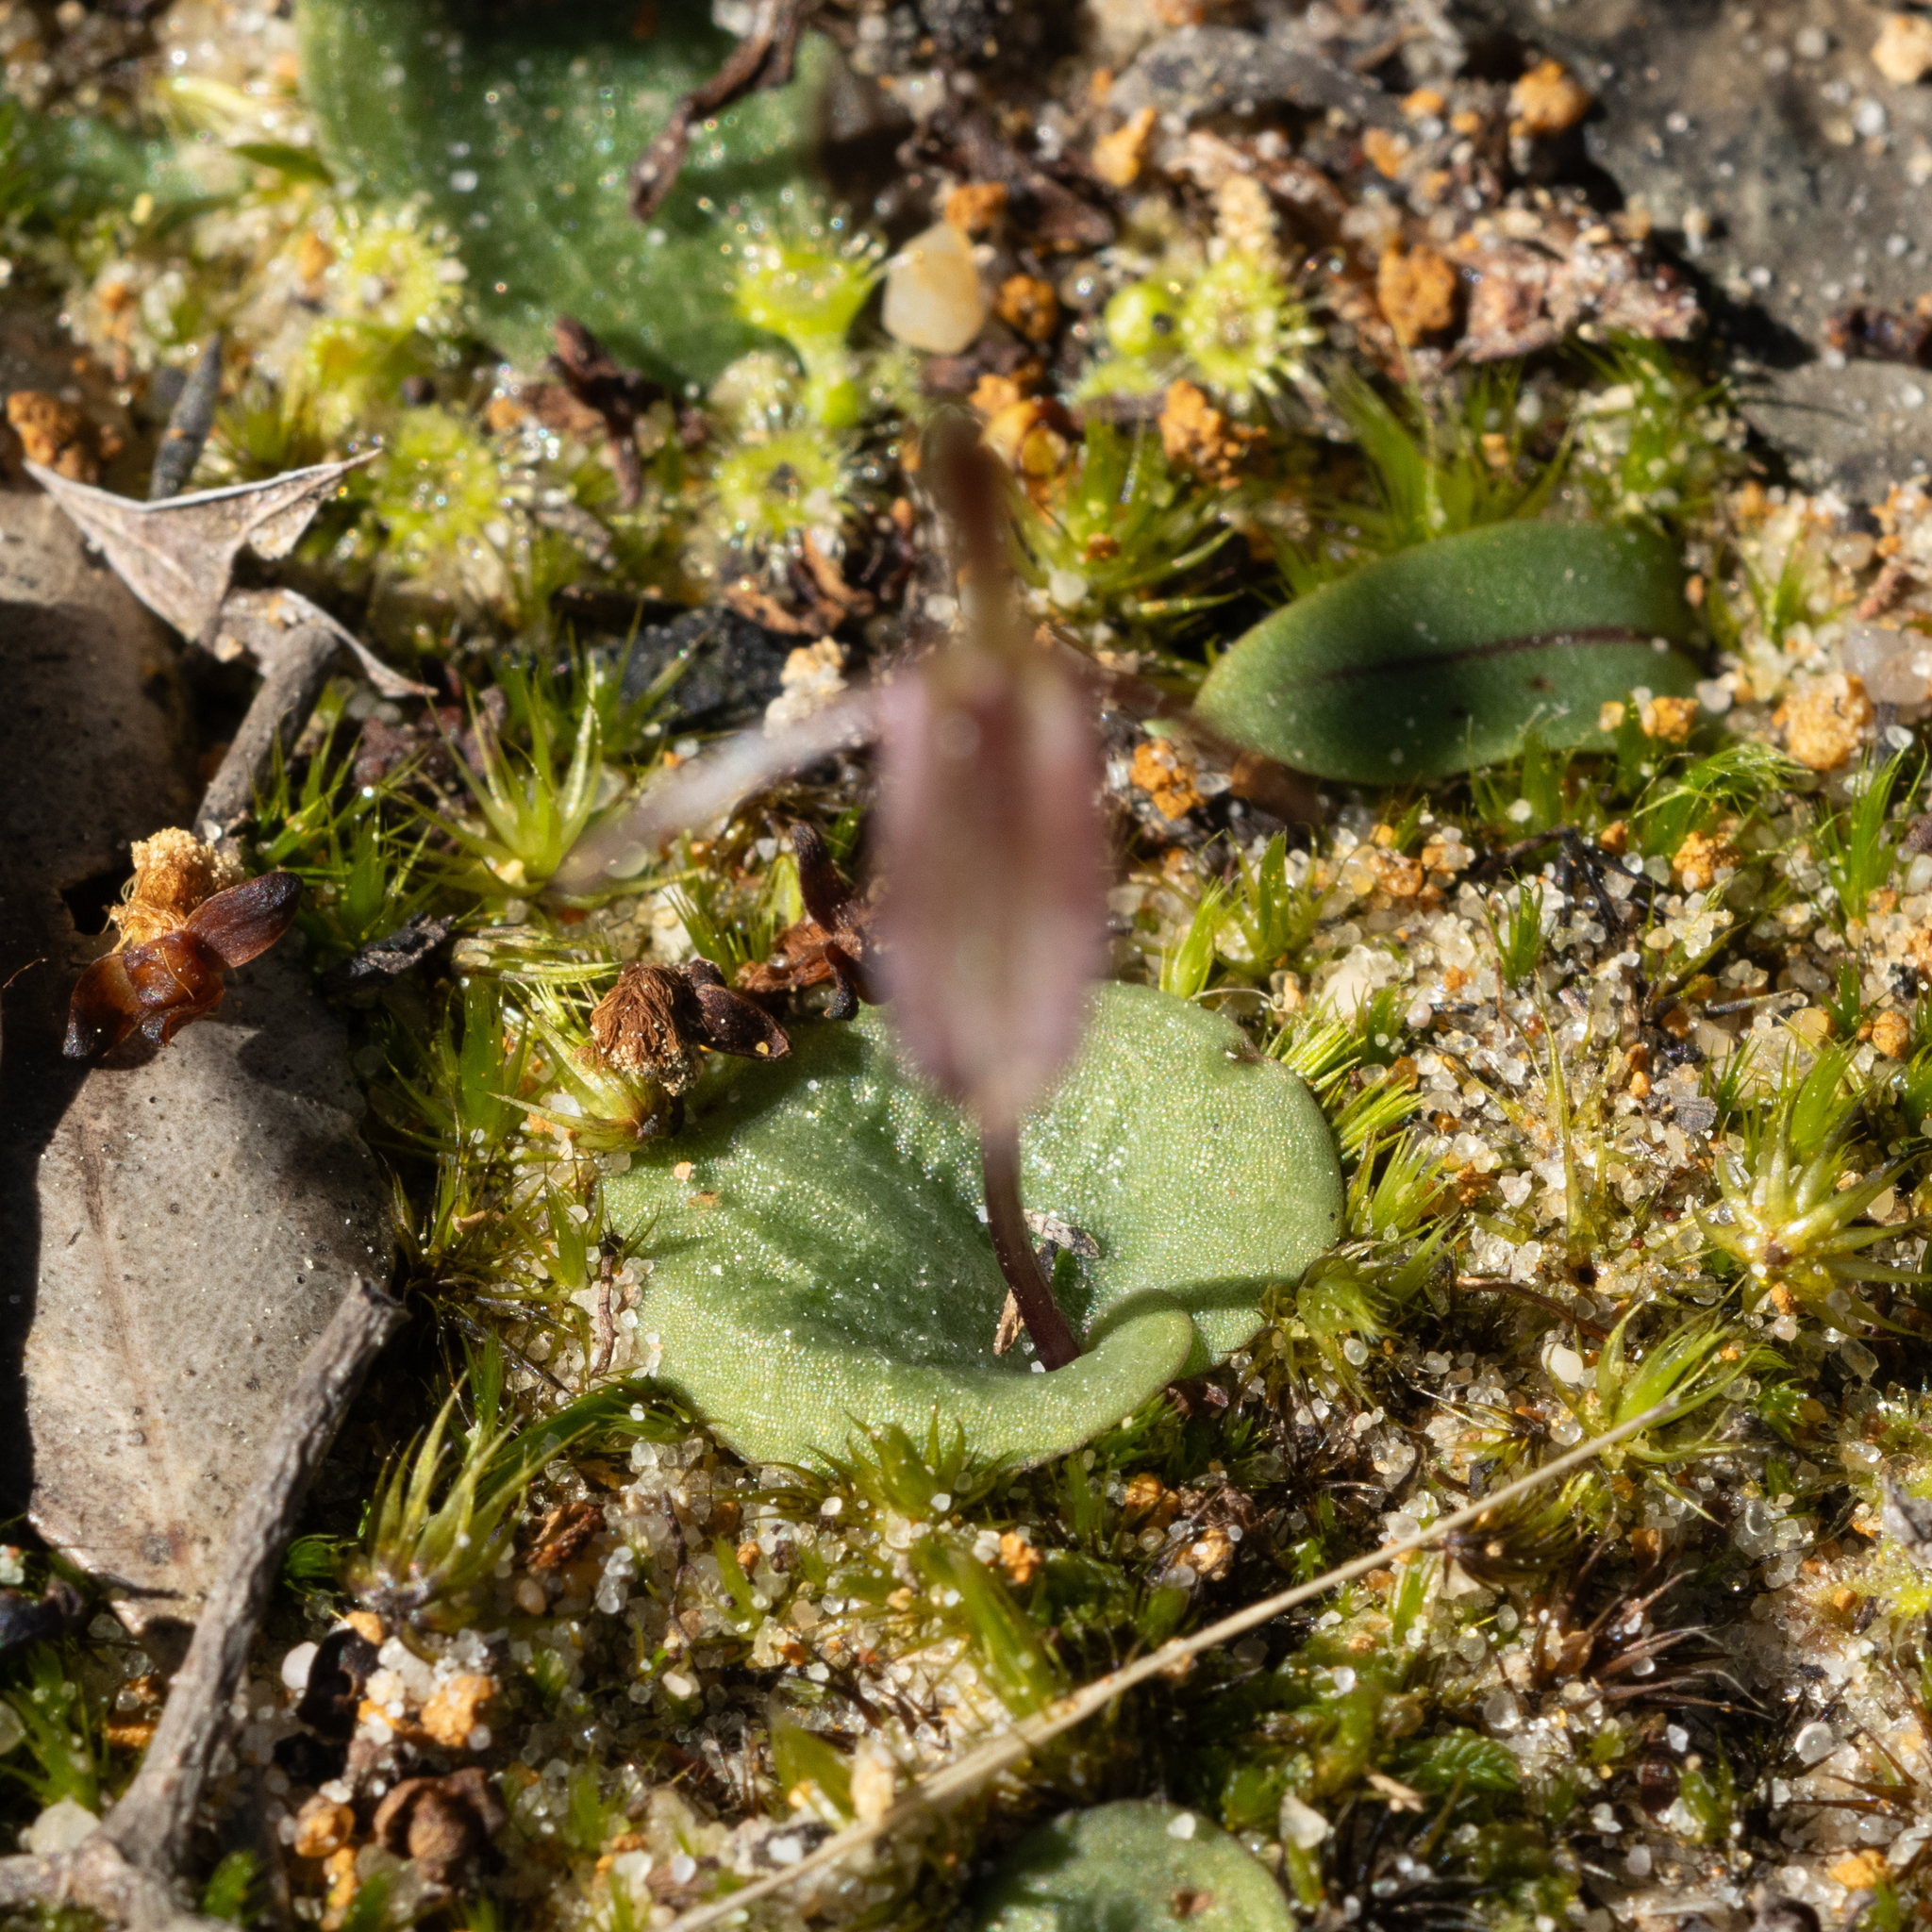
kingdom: Plantae
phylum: Tracheophyta
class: Liliopsida
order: Asparagales
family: Orchidaceae
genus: Cyrtostylis
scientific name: Cyrtostylis reniformis
